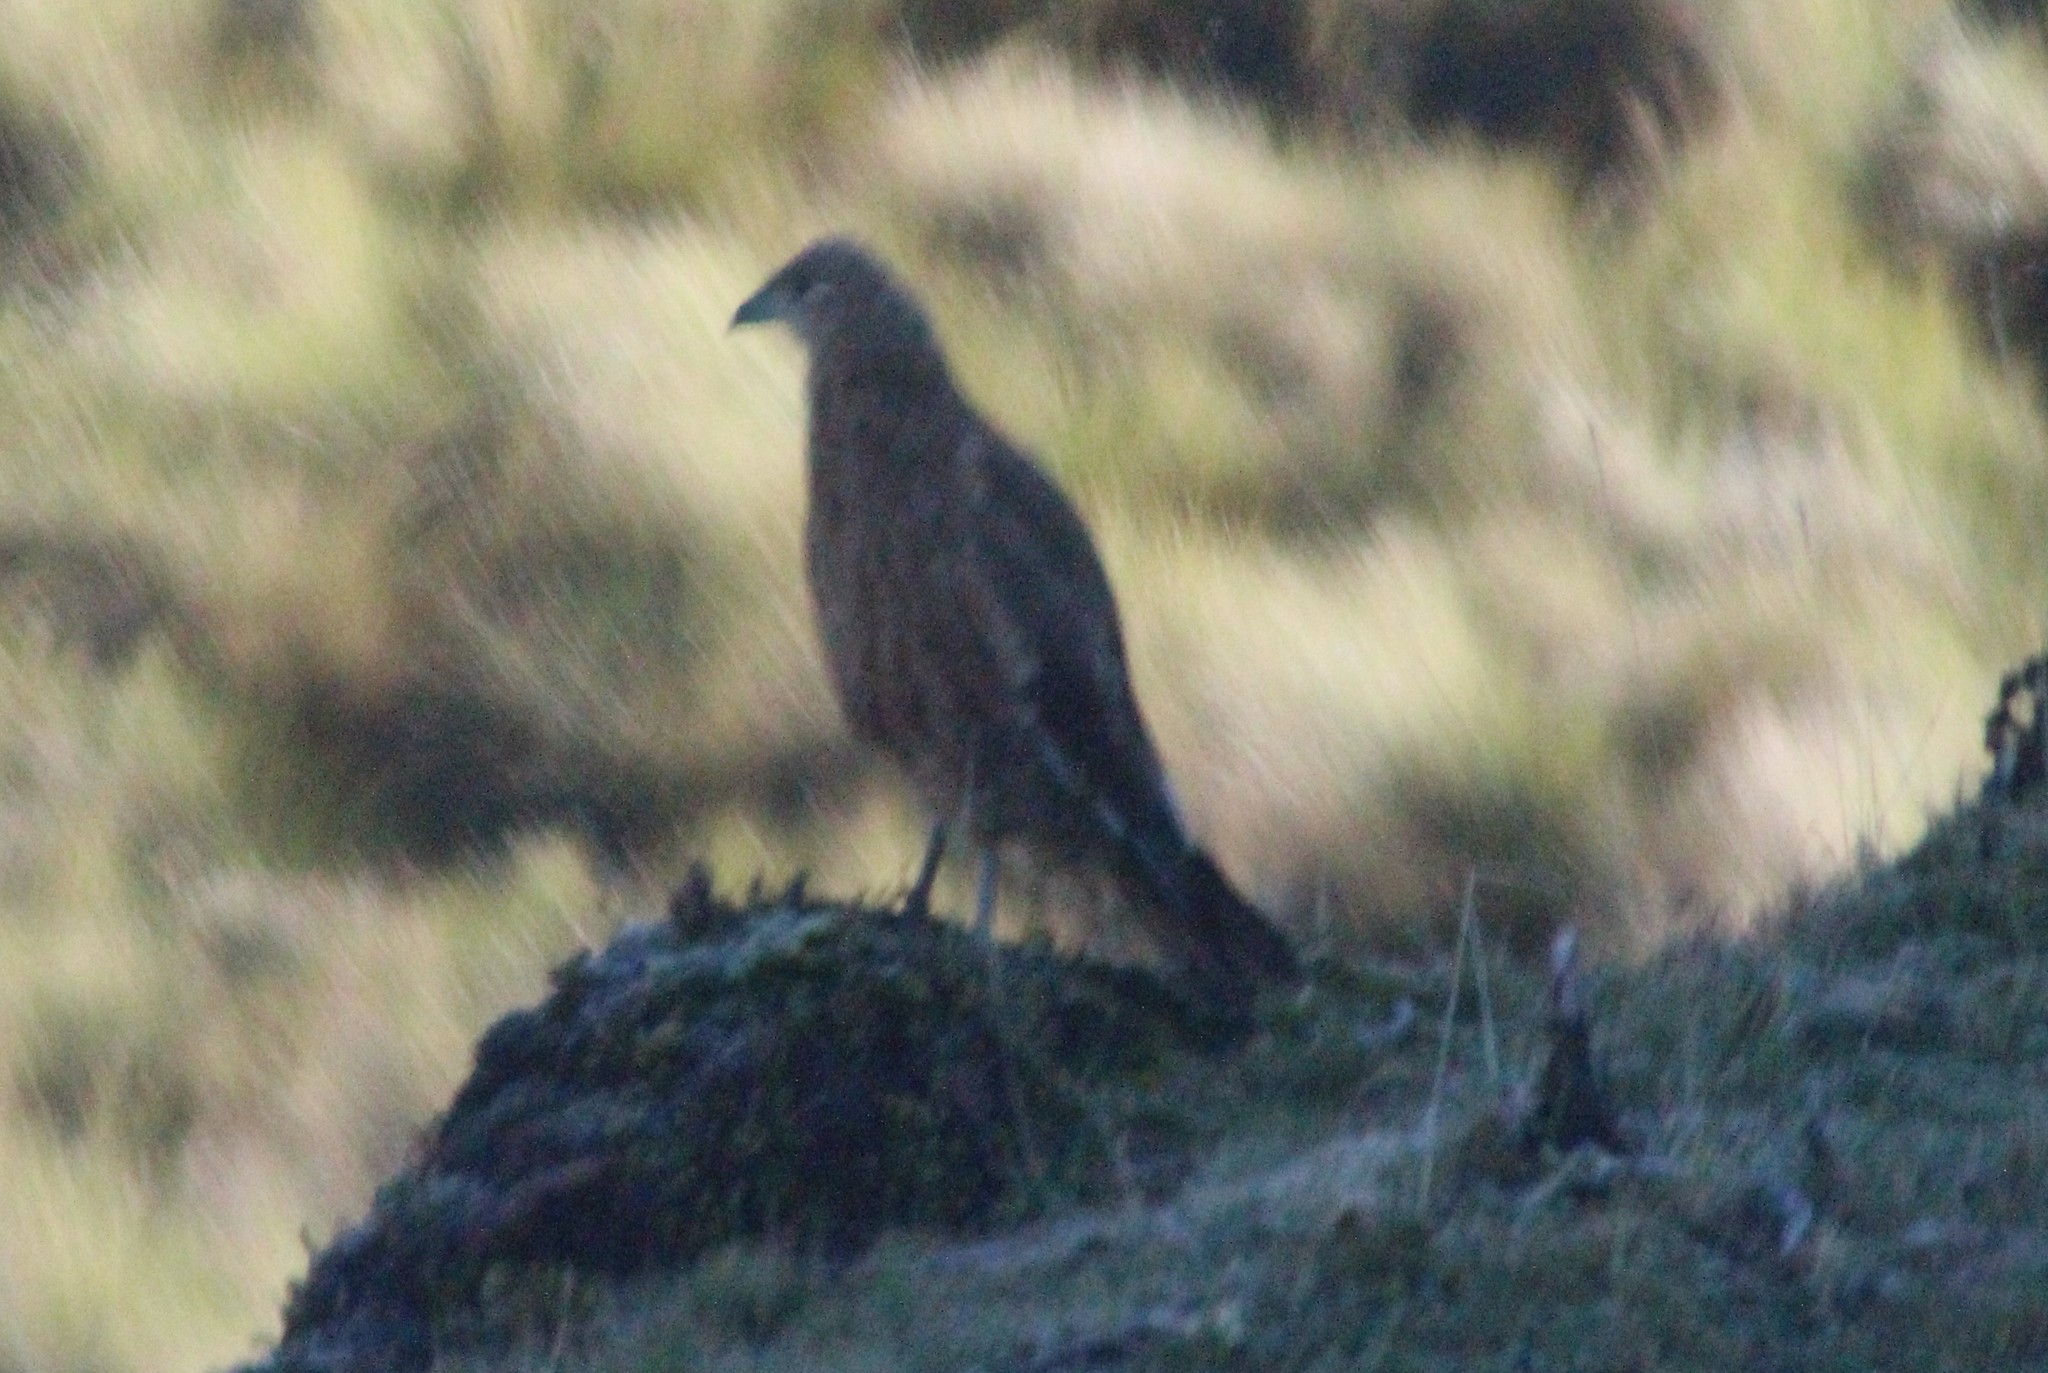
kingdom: Animalia
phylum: Chordata
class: Aves
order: Falconiformes
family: Falconidae
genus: Daptrius
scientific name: Daptrius
